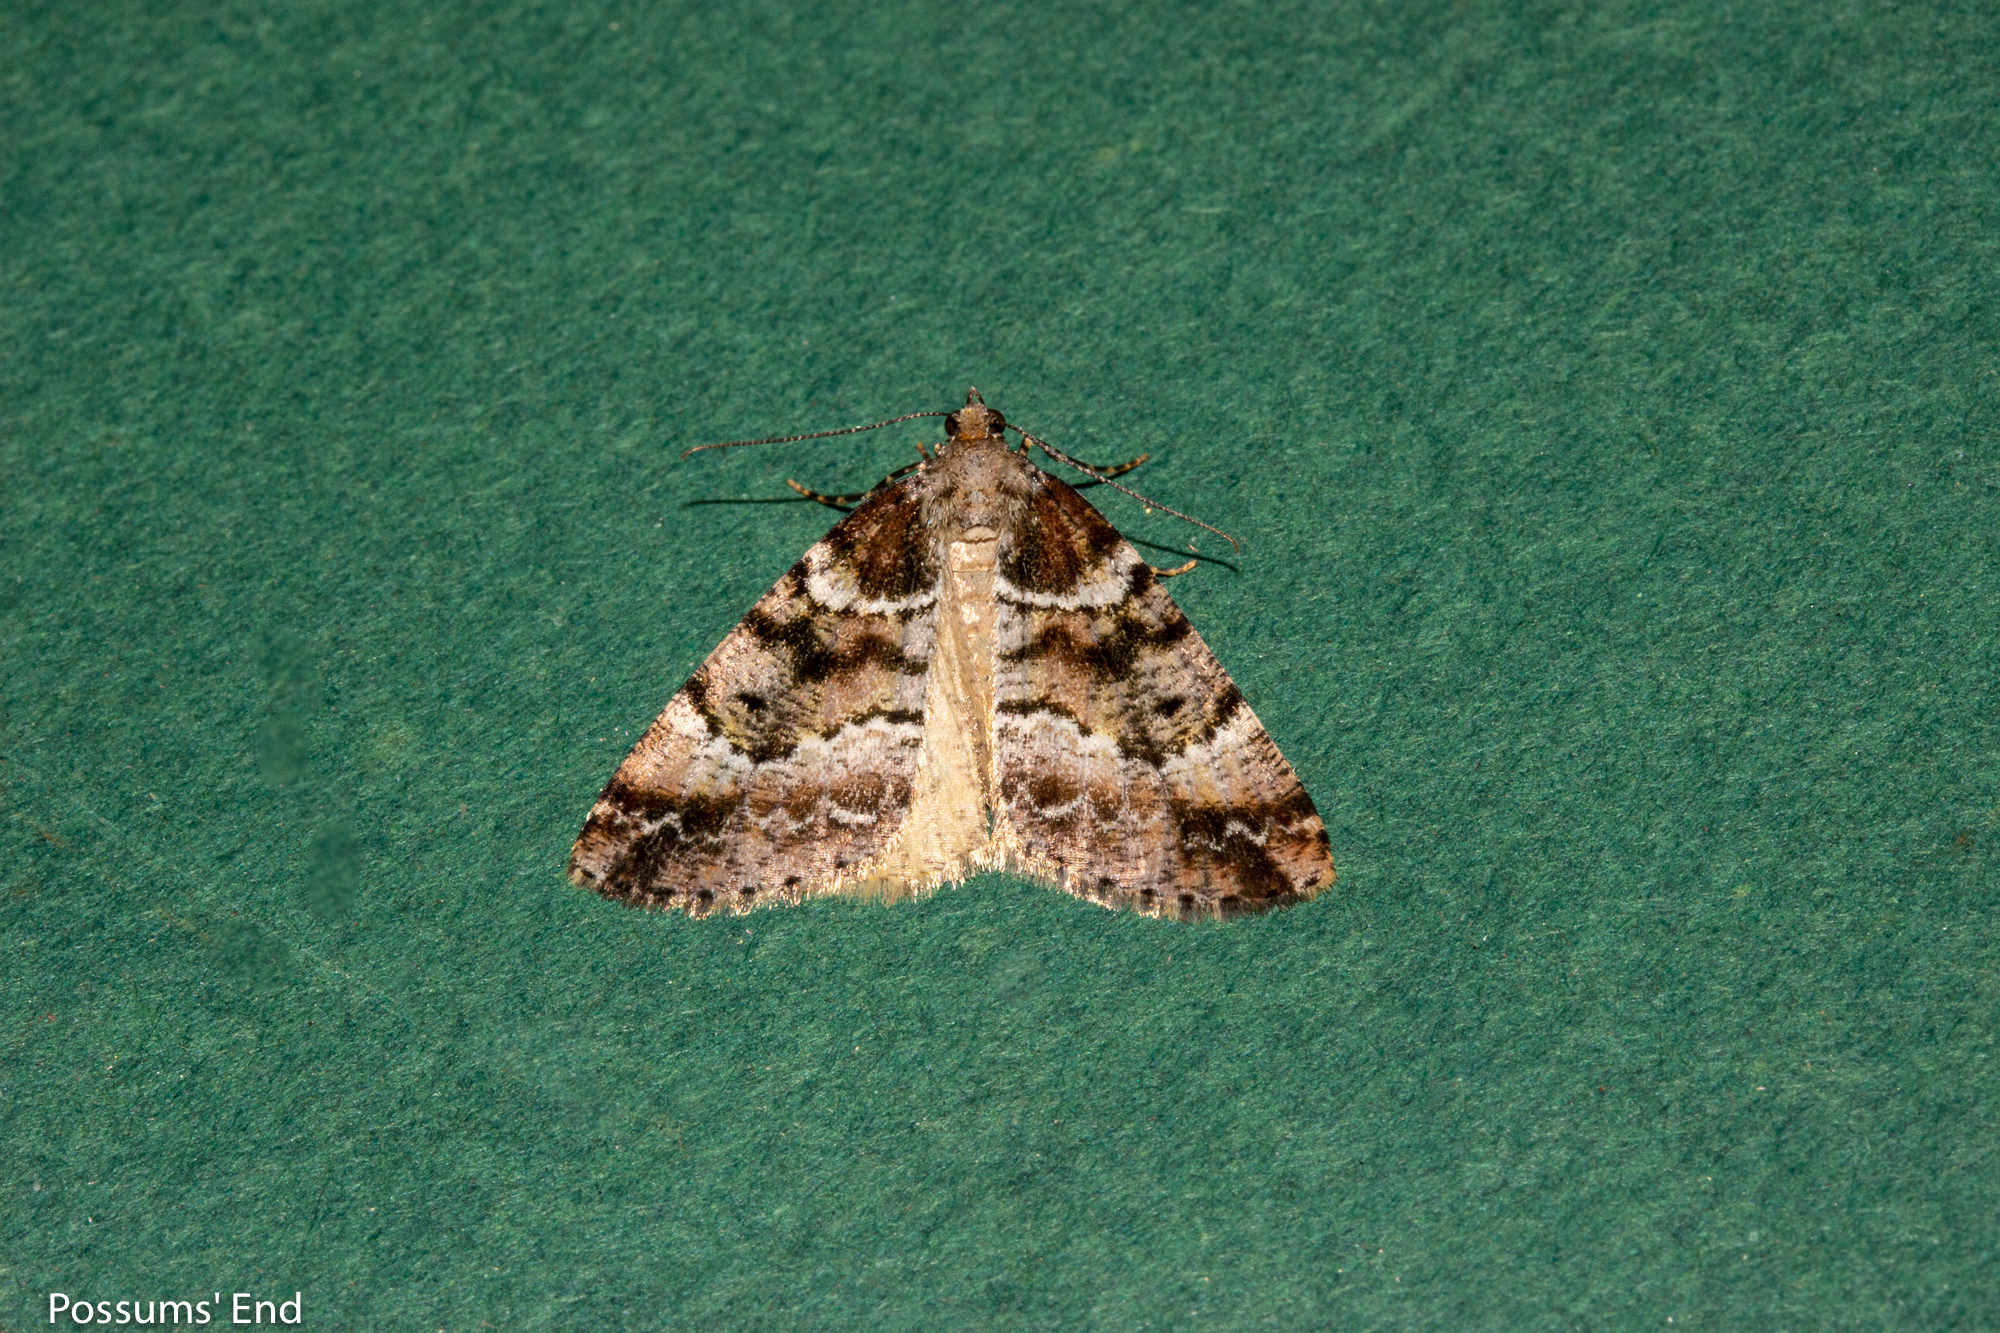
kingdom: Animalia
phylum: Arthropoda
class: Insecta
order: Lepidoptera
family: Geometridae
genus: Pseudocoremia
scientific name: Pseudocoremia productata
